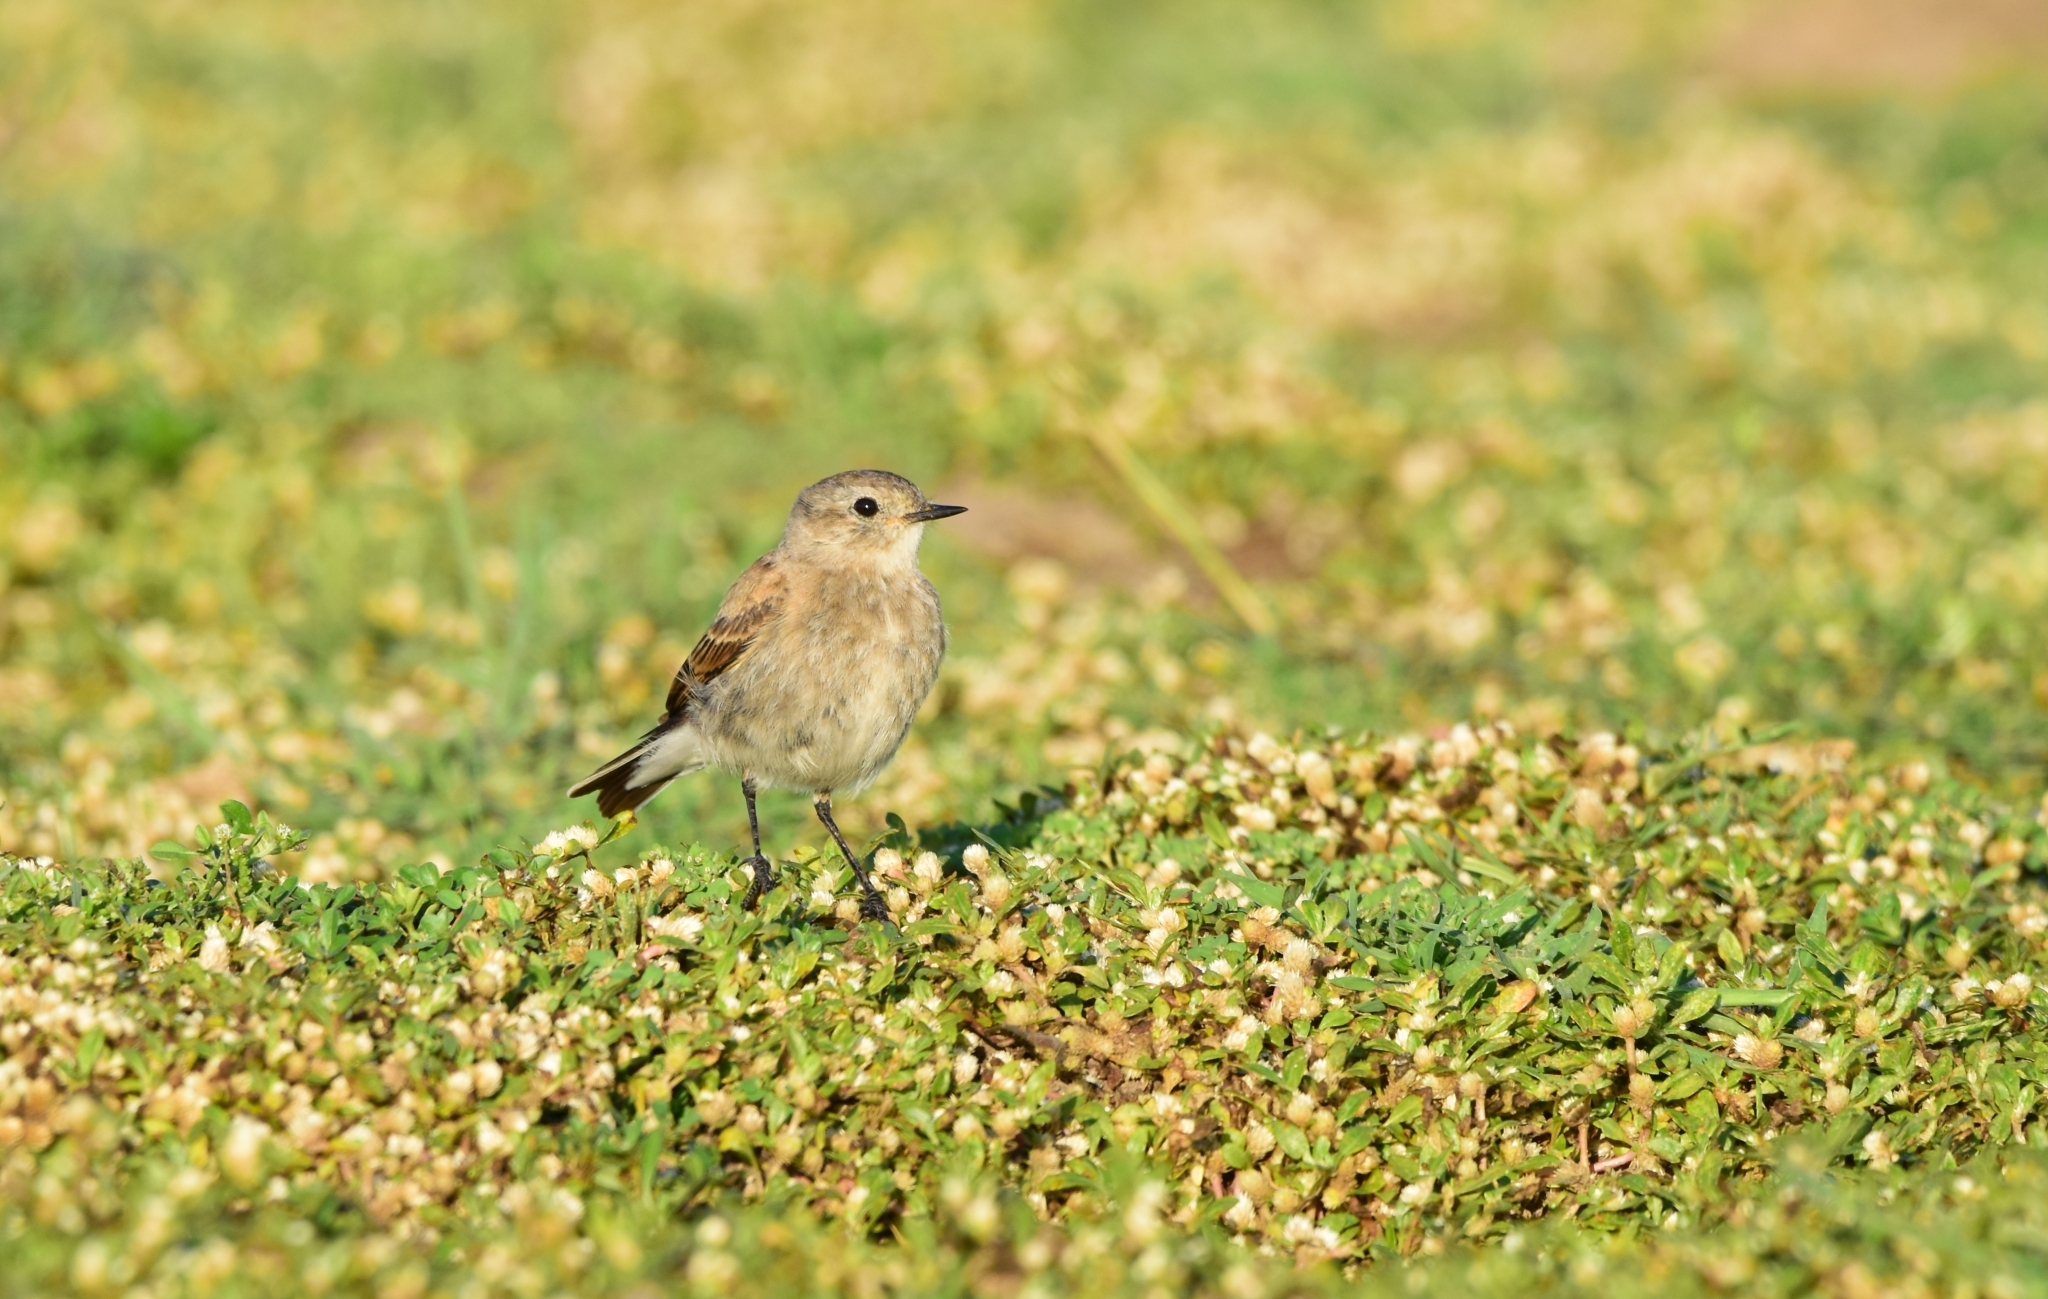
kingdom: Animalia
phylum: Chordata
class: Aves
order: Passeriformes
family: Tyrannidae
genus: Lessonia
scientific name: Lessonia rufa
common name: Austral negrito
